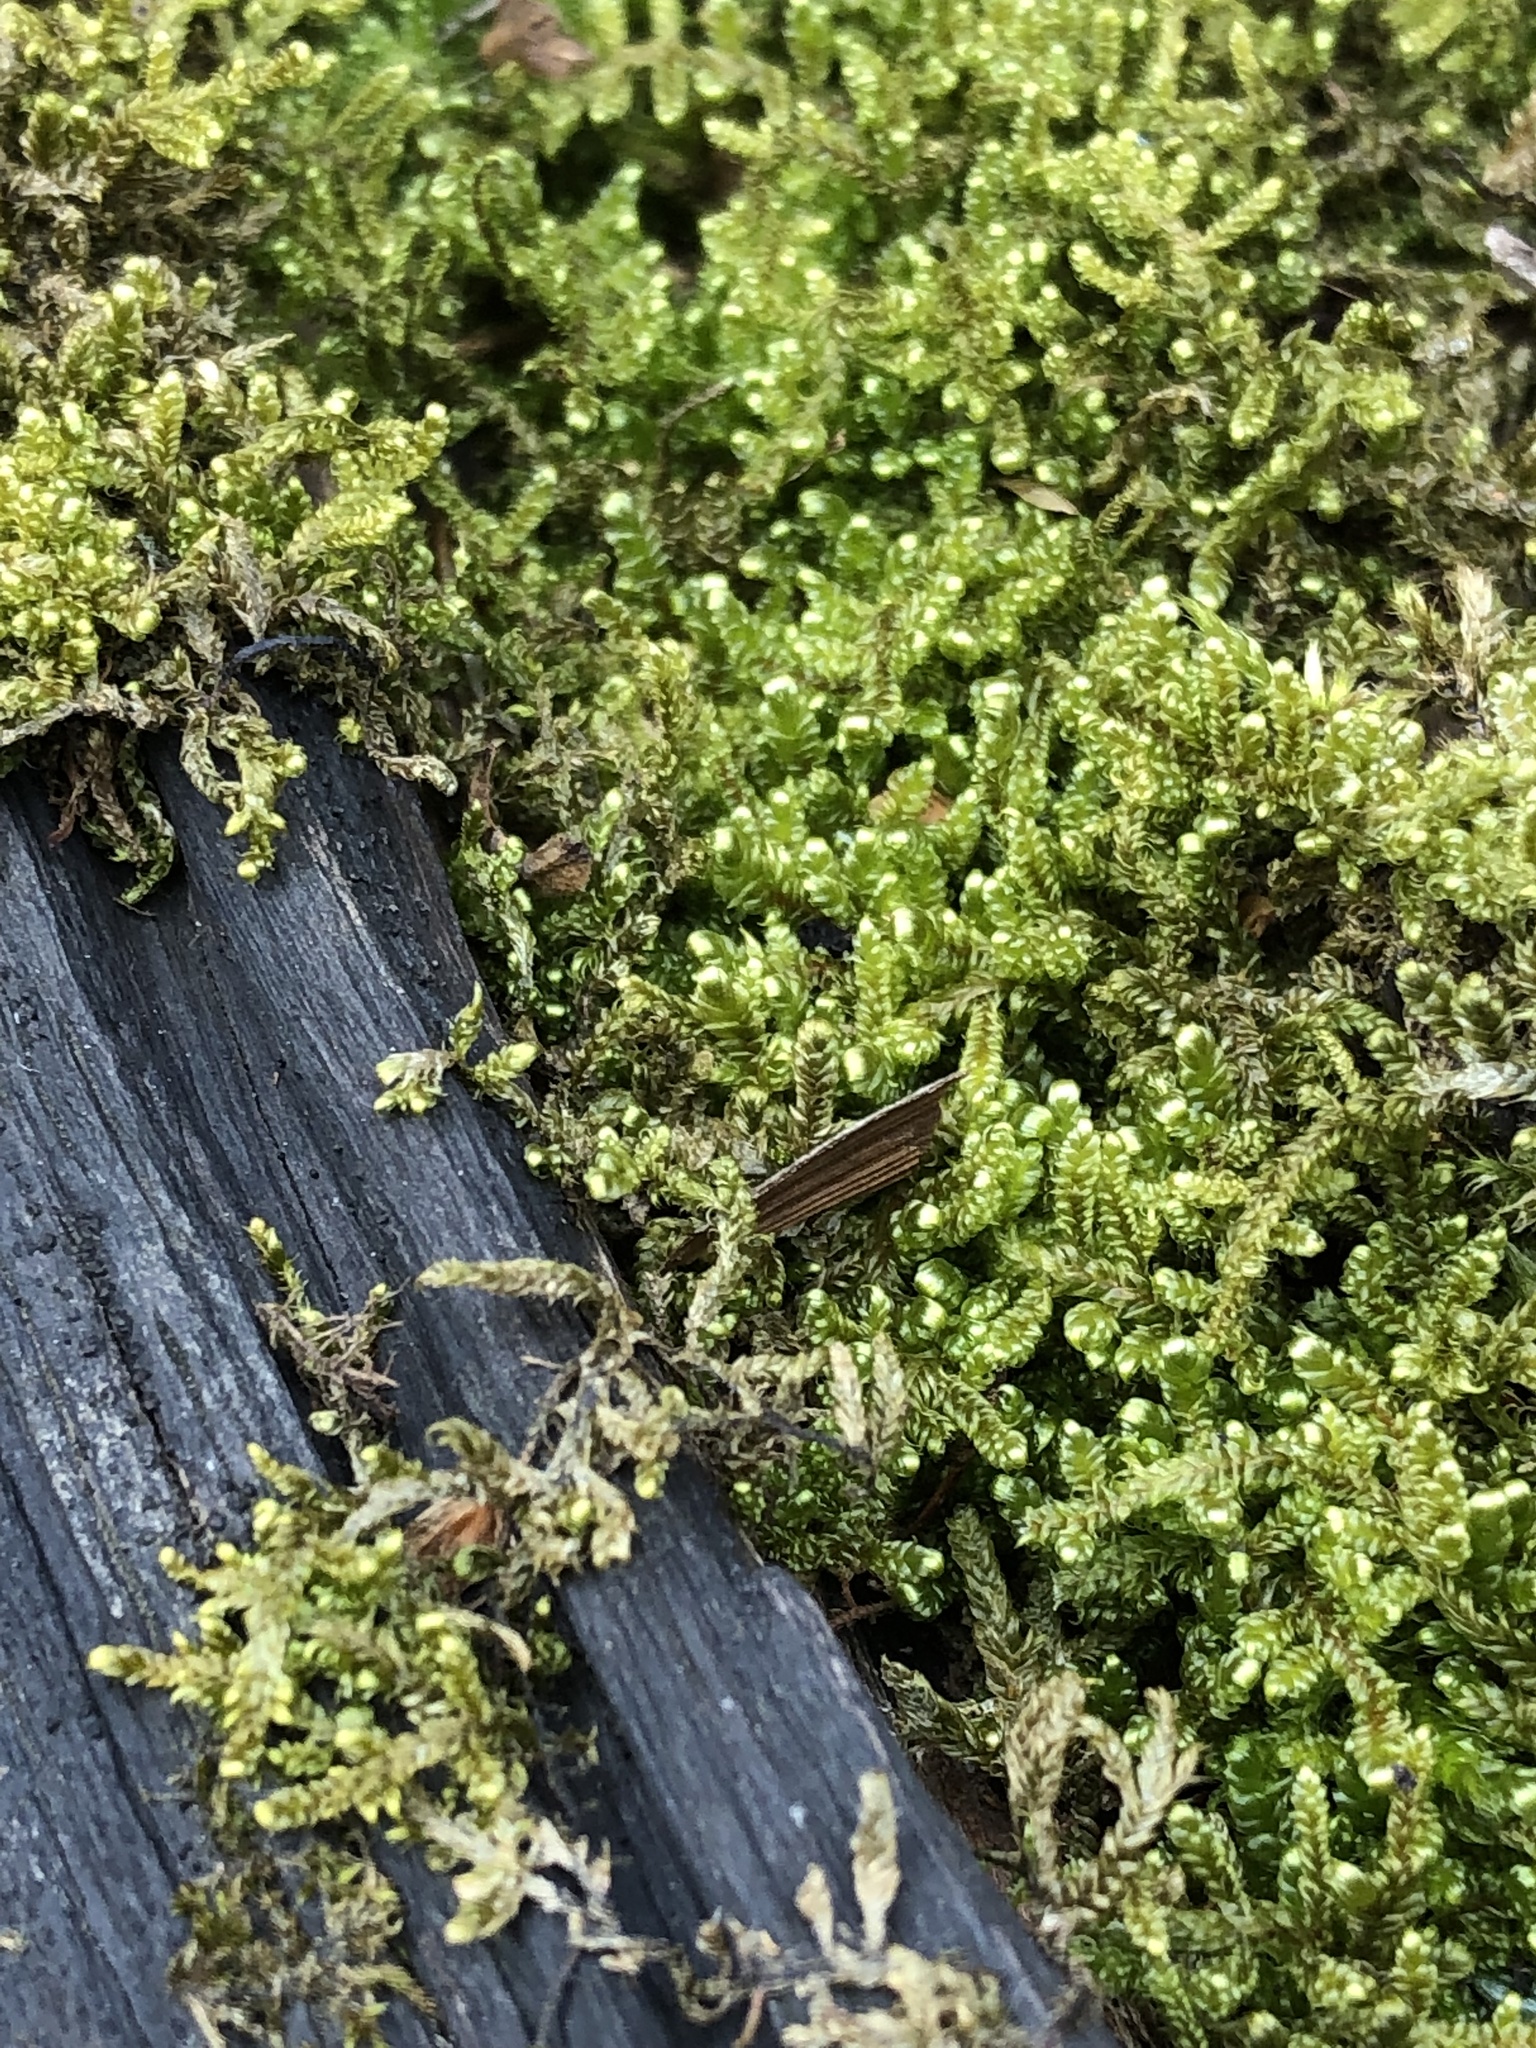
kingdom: Plantae
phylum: Bryophyta
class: Bryopsida
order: Hypnales
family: Callicladiaceae
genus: Callicladium
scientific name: Callicladium imponens
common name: Brocade moss
